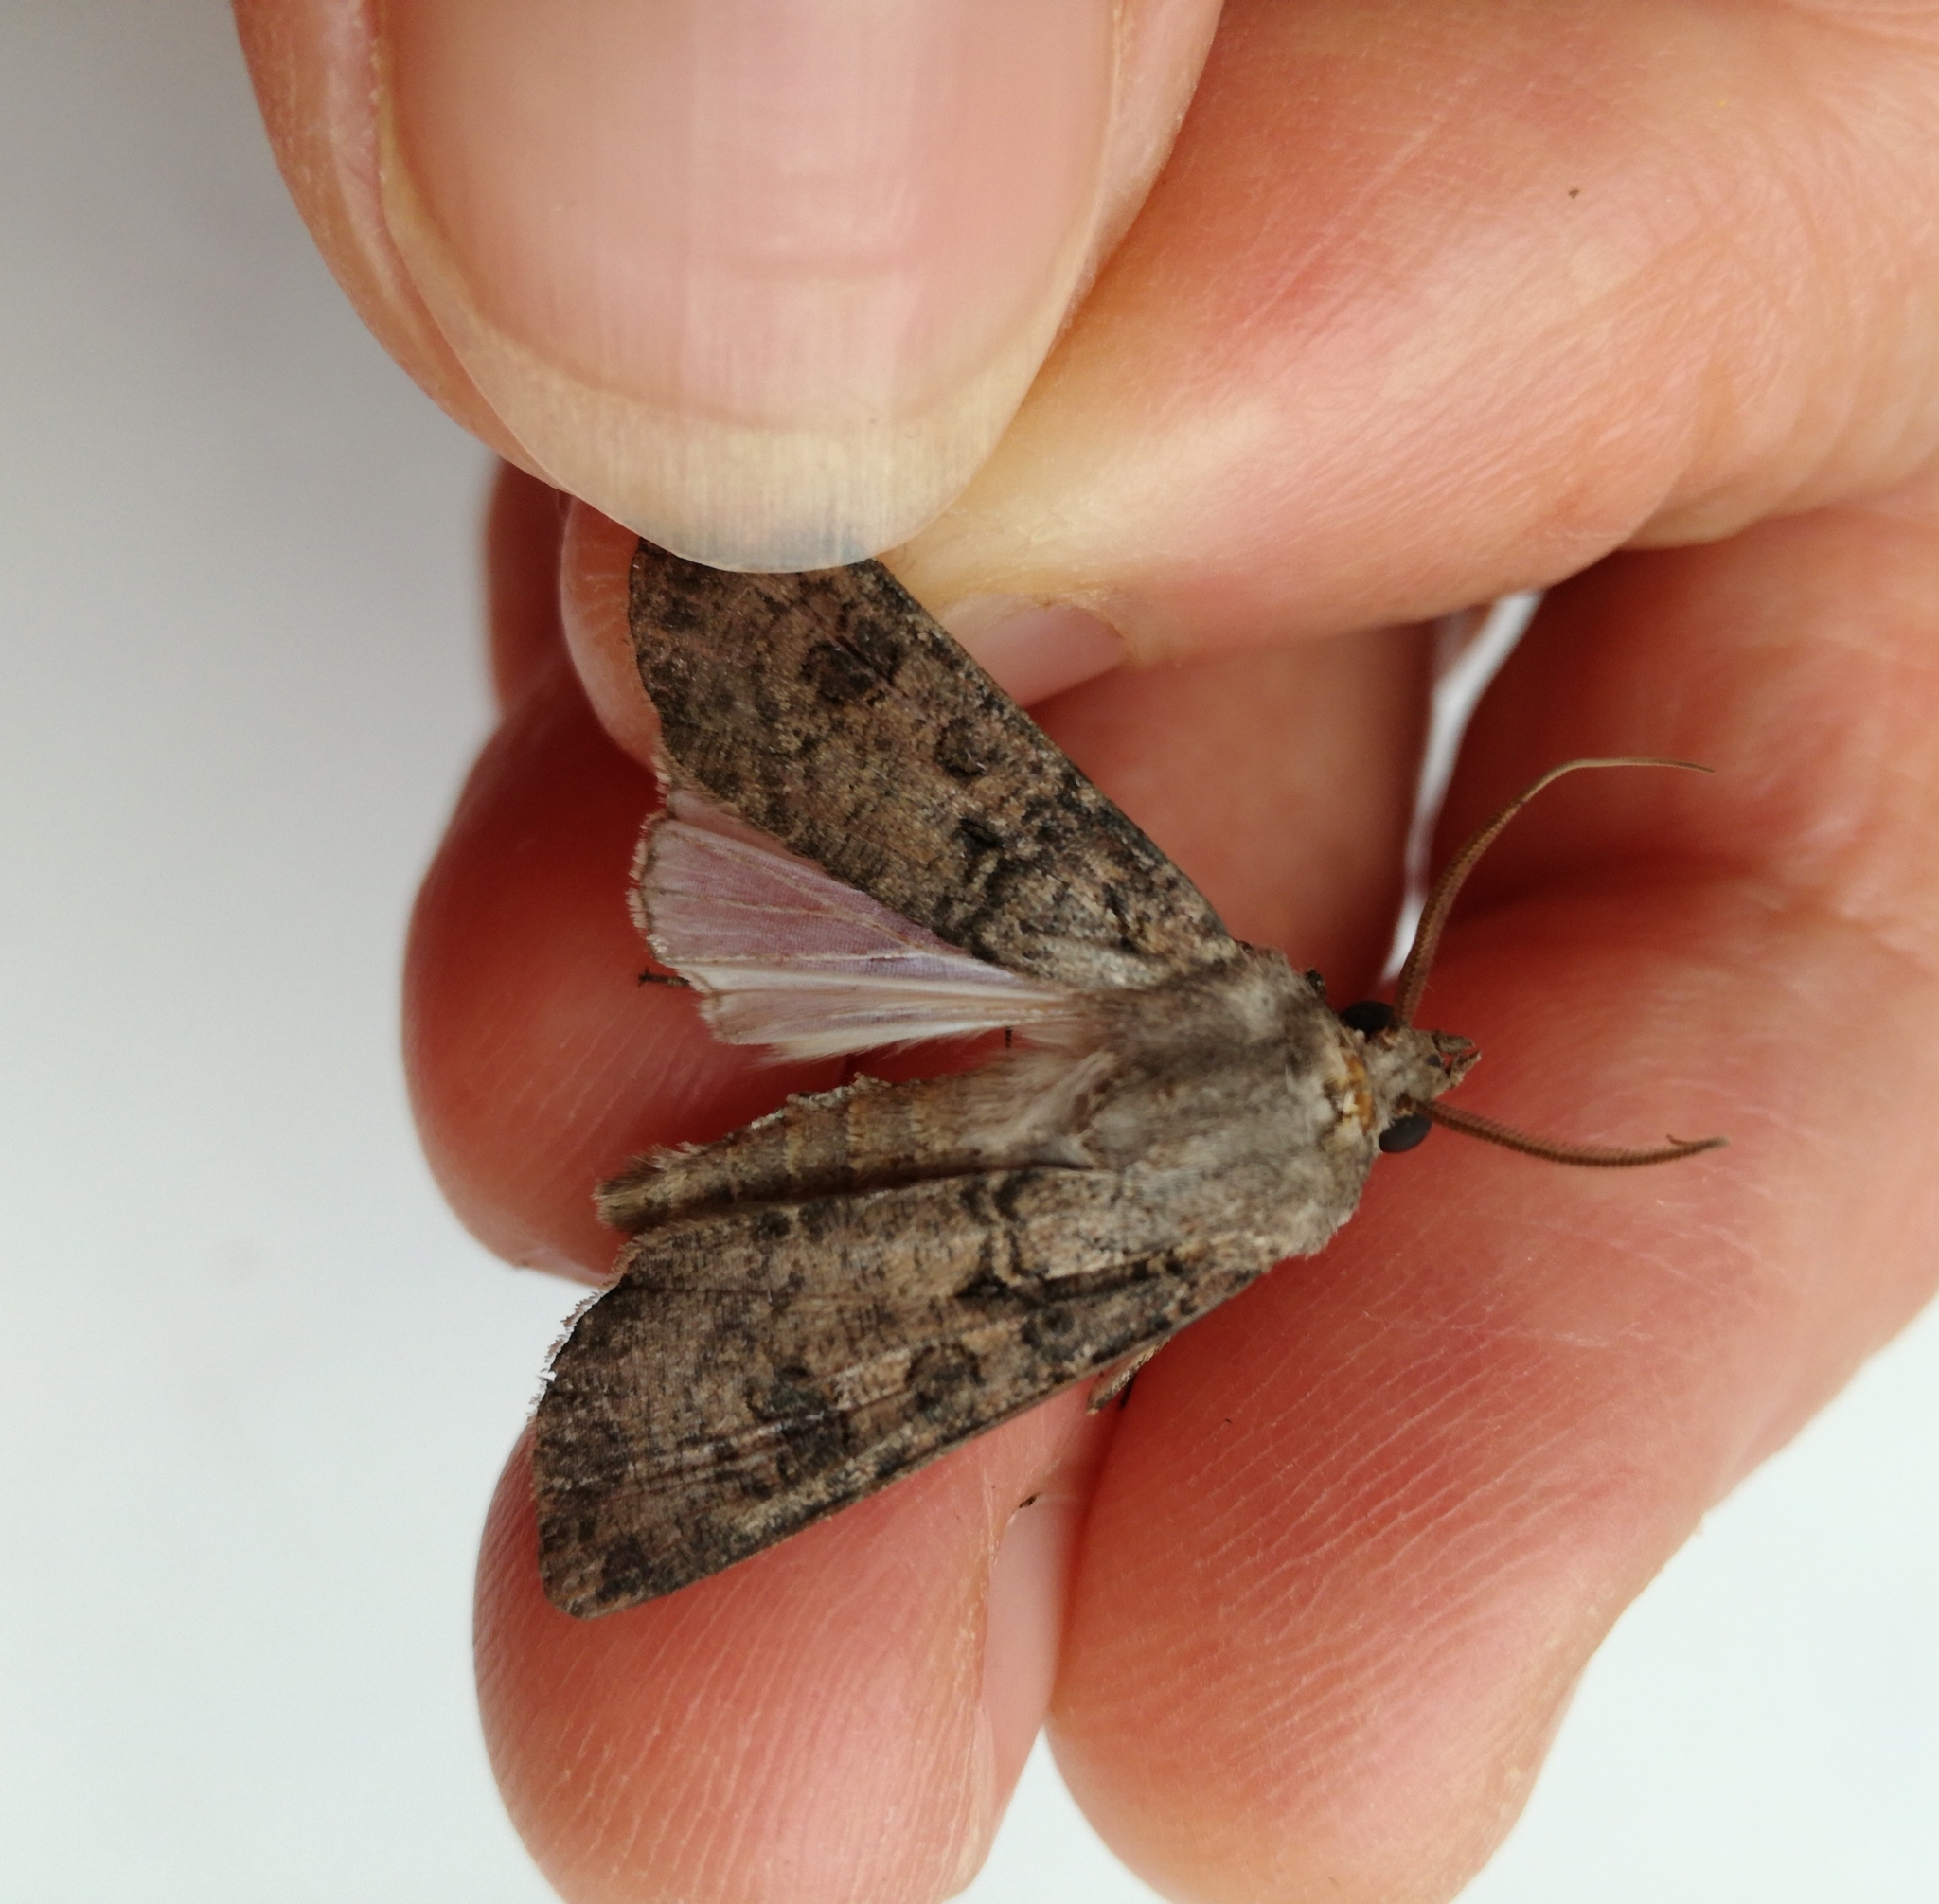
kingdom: Animalia
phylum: Arthropoda
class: Insecta
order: Lepidoptera
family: Noctuidae
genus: Agrotis
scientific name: Agrotis segetum
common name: Turnip moth
